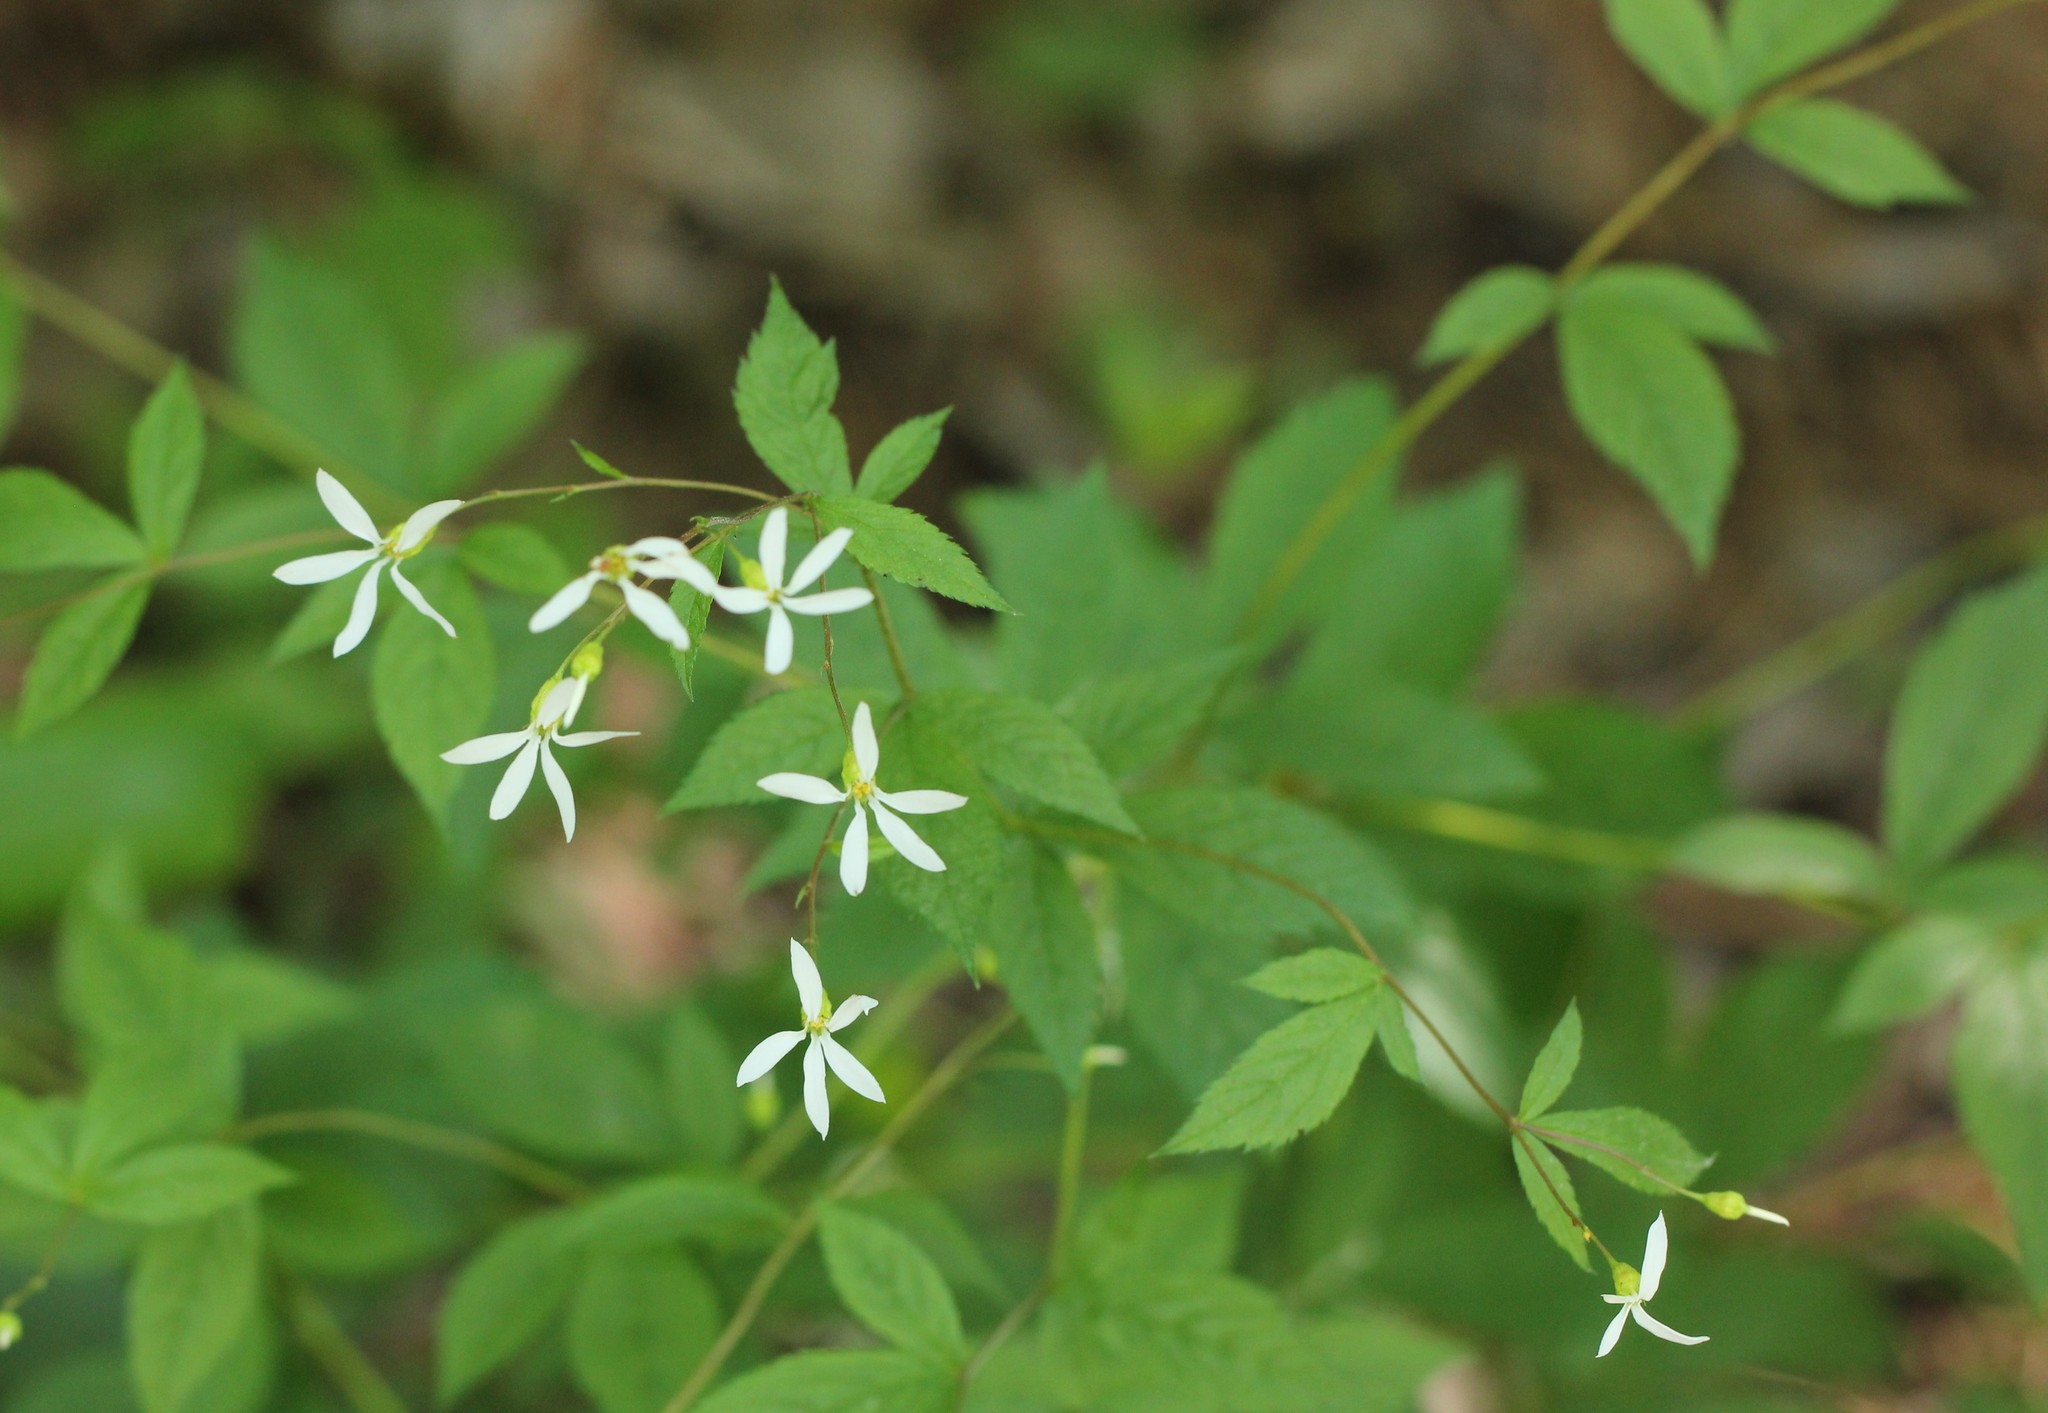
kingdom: Plantae
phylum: Tracheophyta
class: Magnoliopsida
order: Rosales
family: Rosaceae
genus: Gillenia
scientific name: Gillenia trifoliata
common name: Bowman's-root
